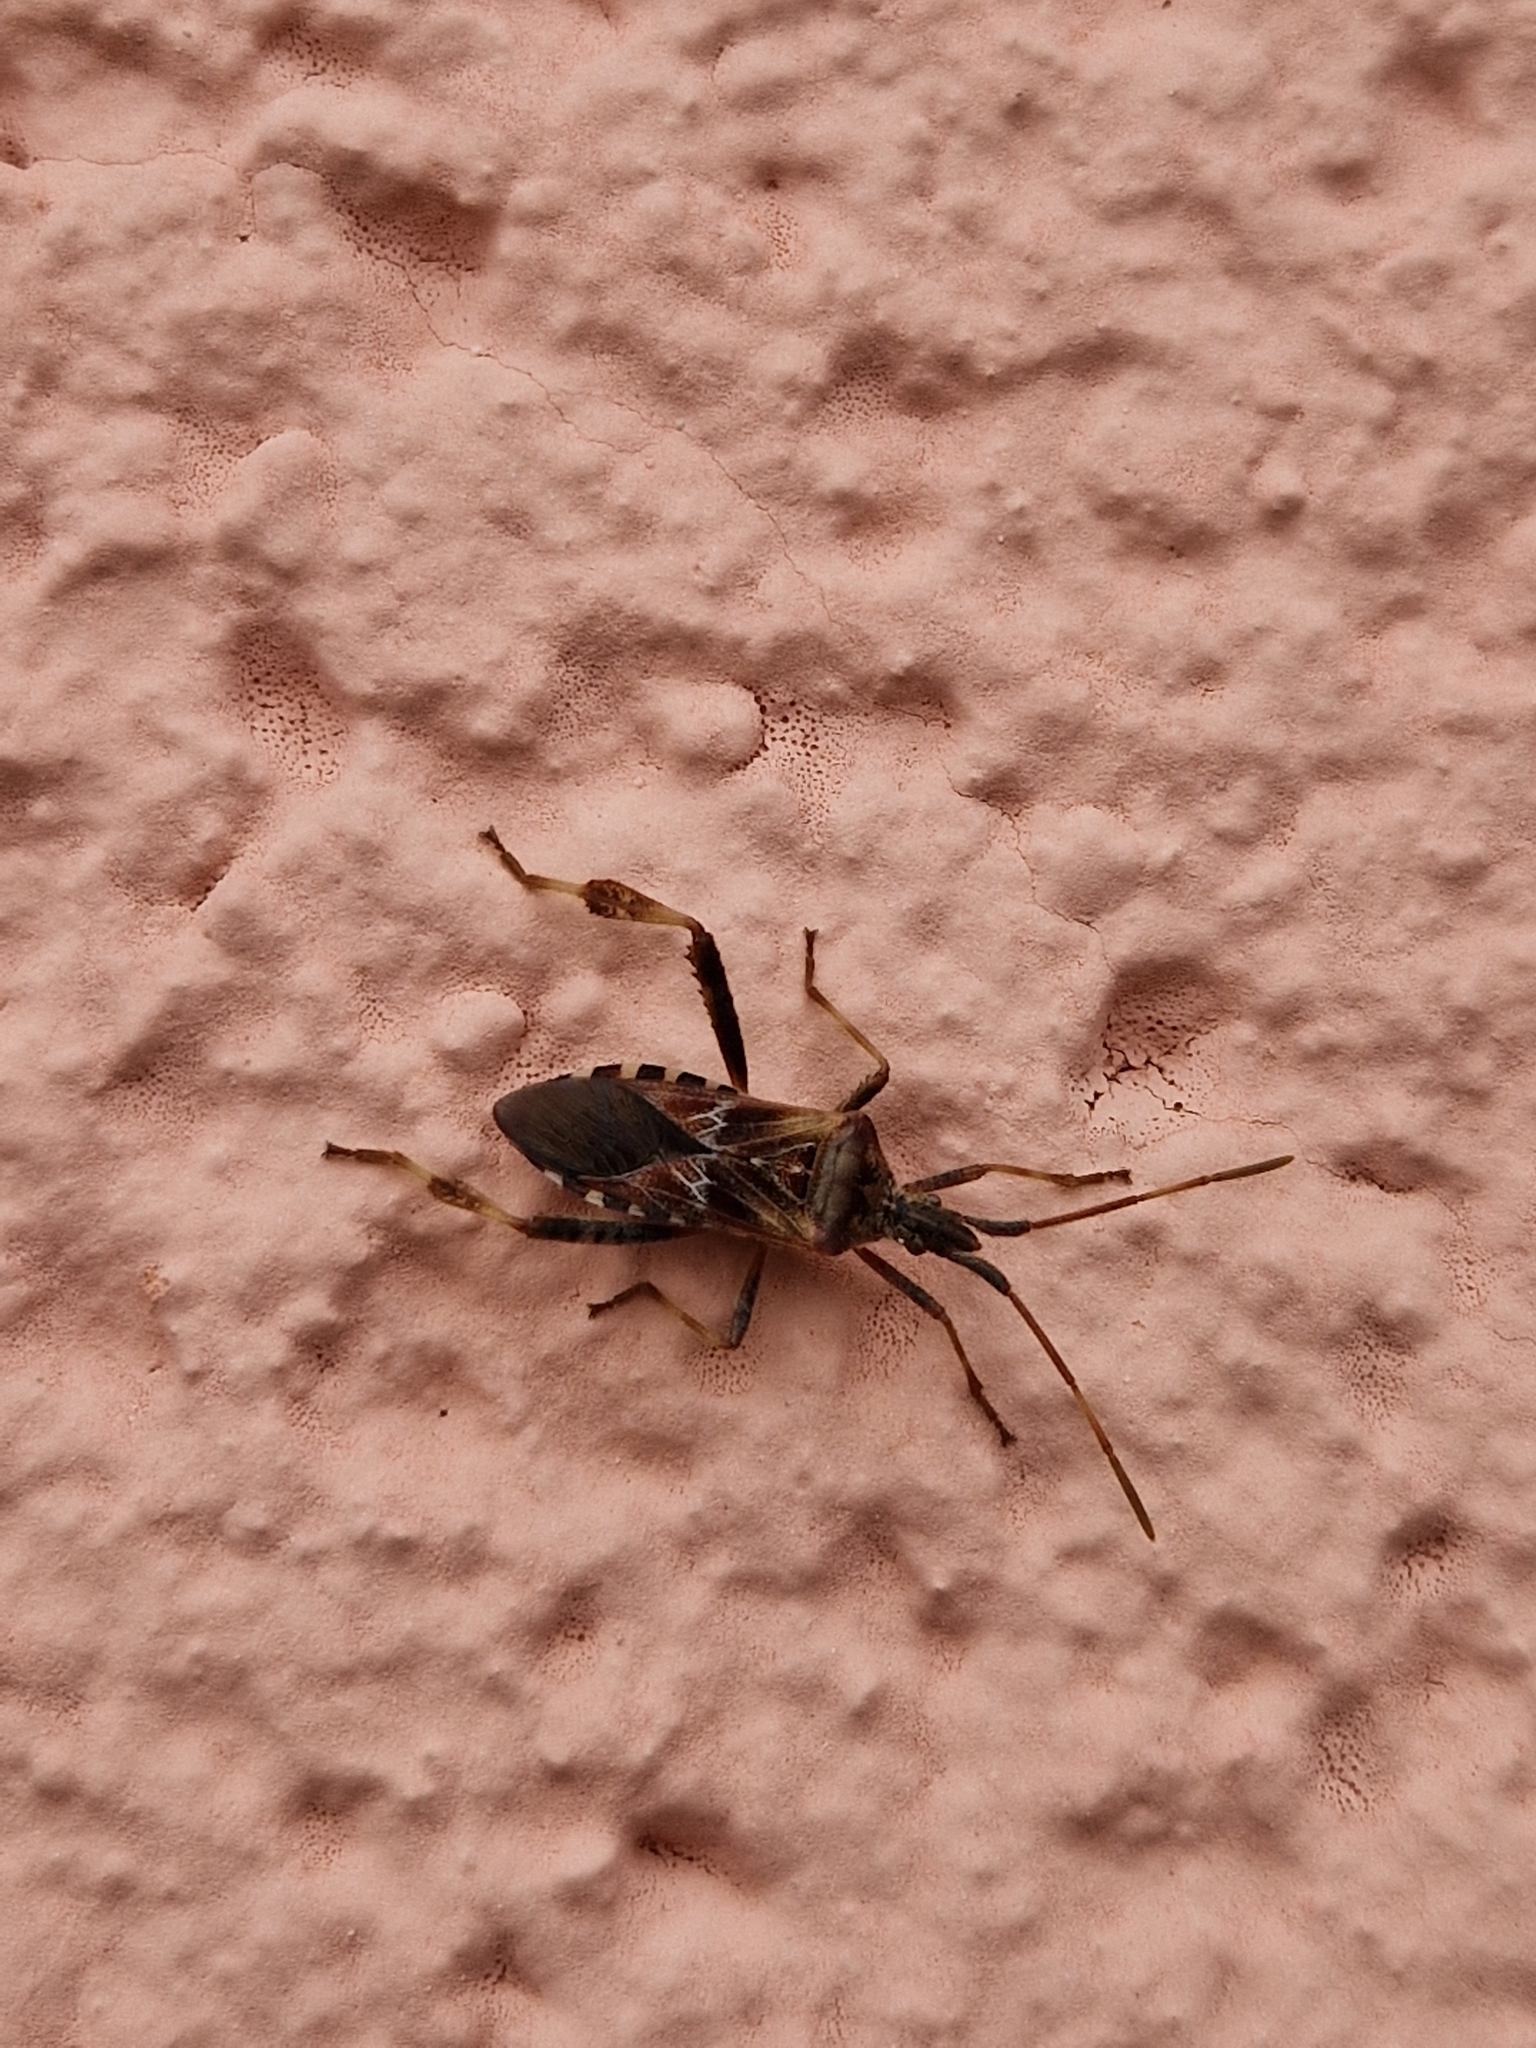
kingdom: Animalia
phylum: Arthropoda
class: Insecta
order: Hemiptera
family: Coreidae
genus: Leptoglossus
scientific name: Leptoglossus occidentalis
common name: Western conifer-seed bug
